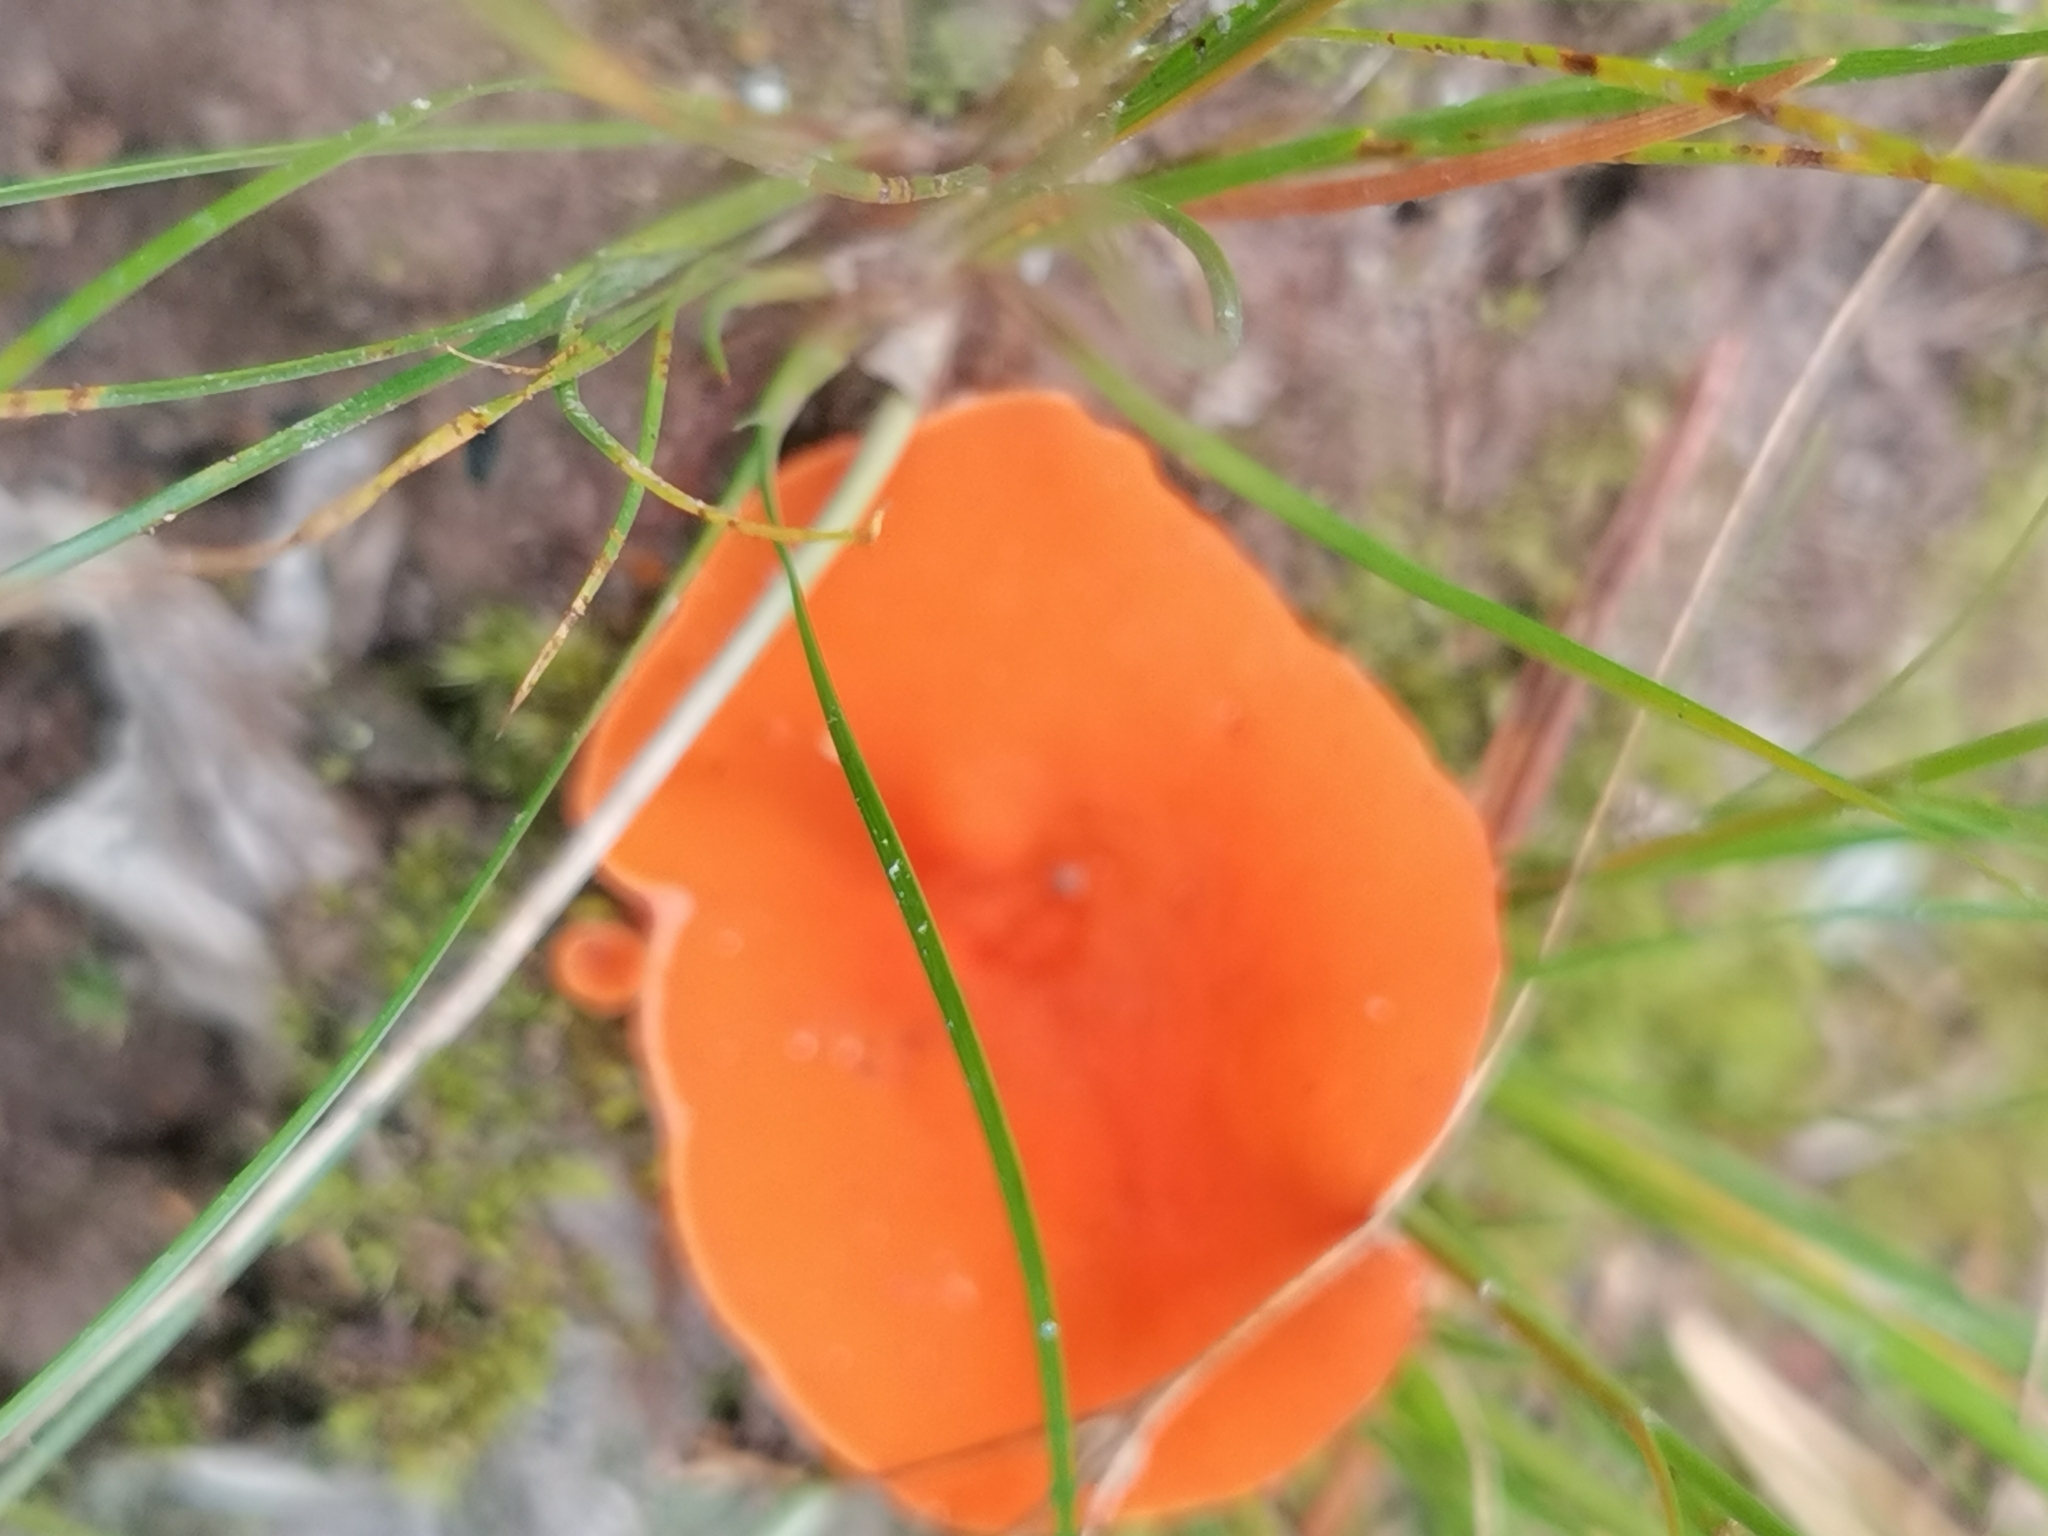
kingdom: Fungi
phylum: Ascomycota
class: Pezizomycetes
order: Pezizales
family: Pyronemataceae
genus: Aleuria
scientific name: Aleuria aurantia
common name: Orange peel fungus
